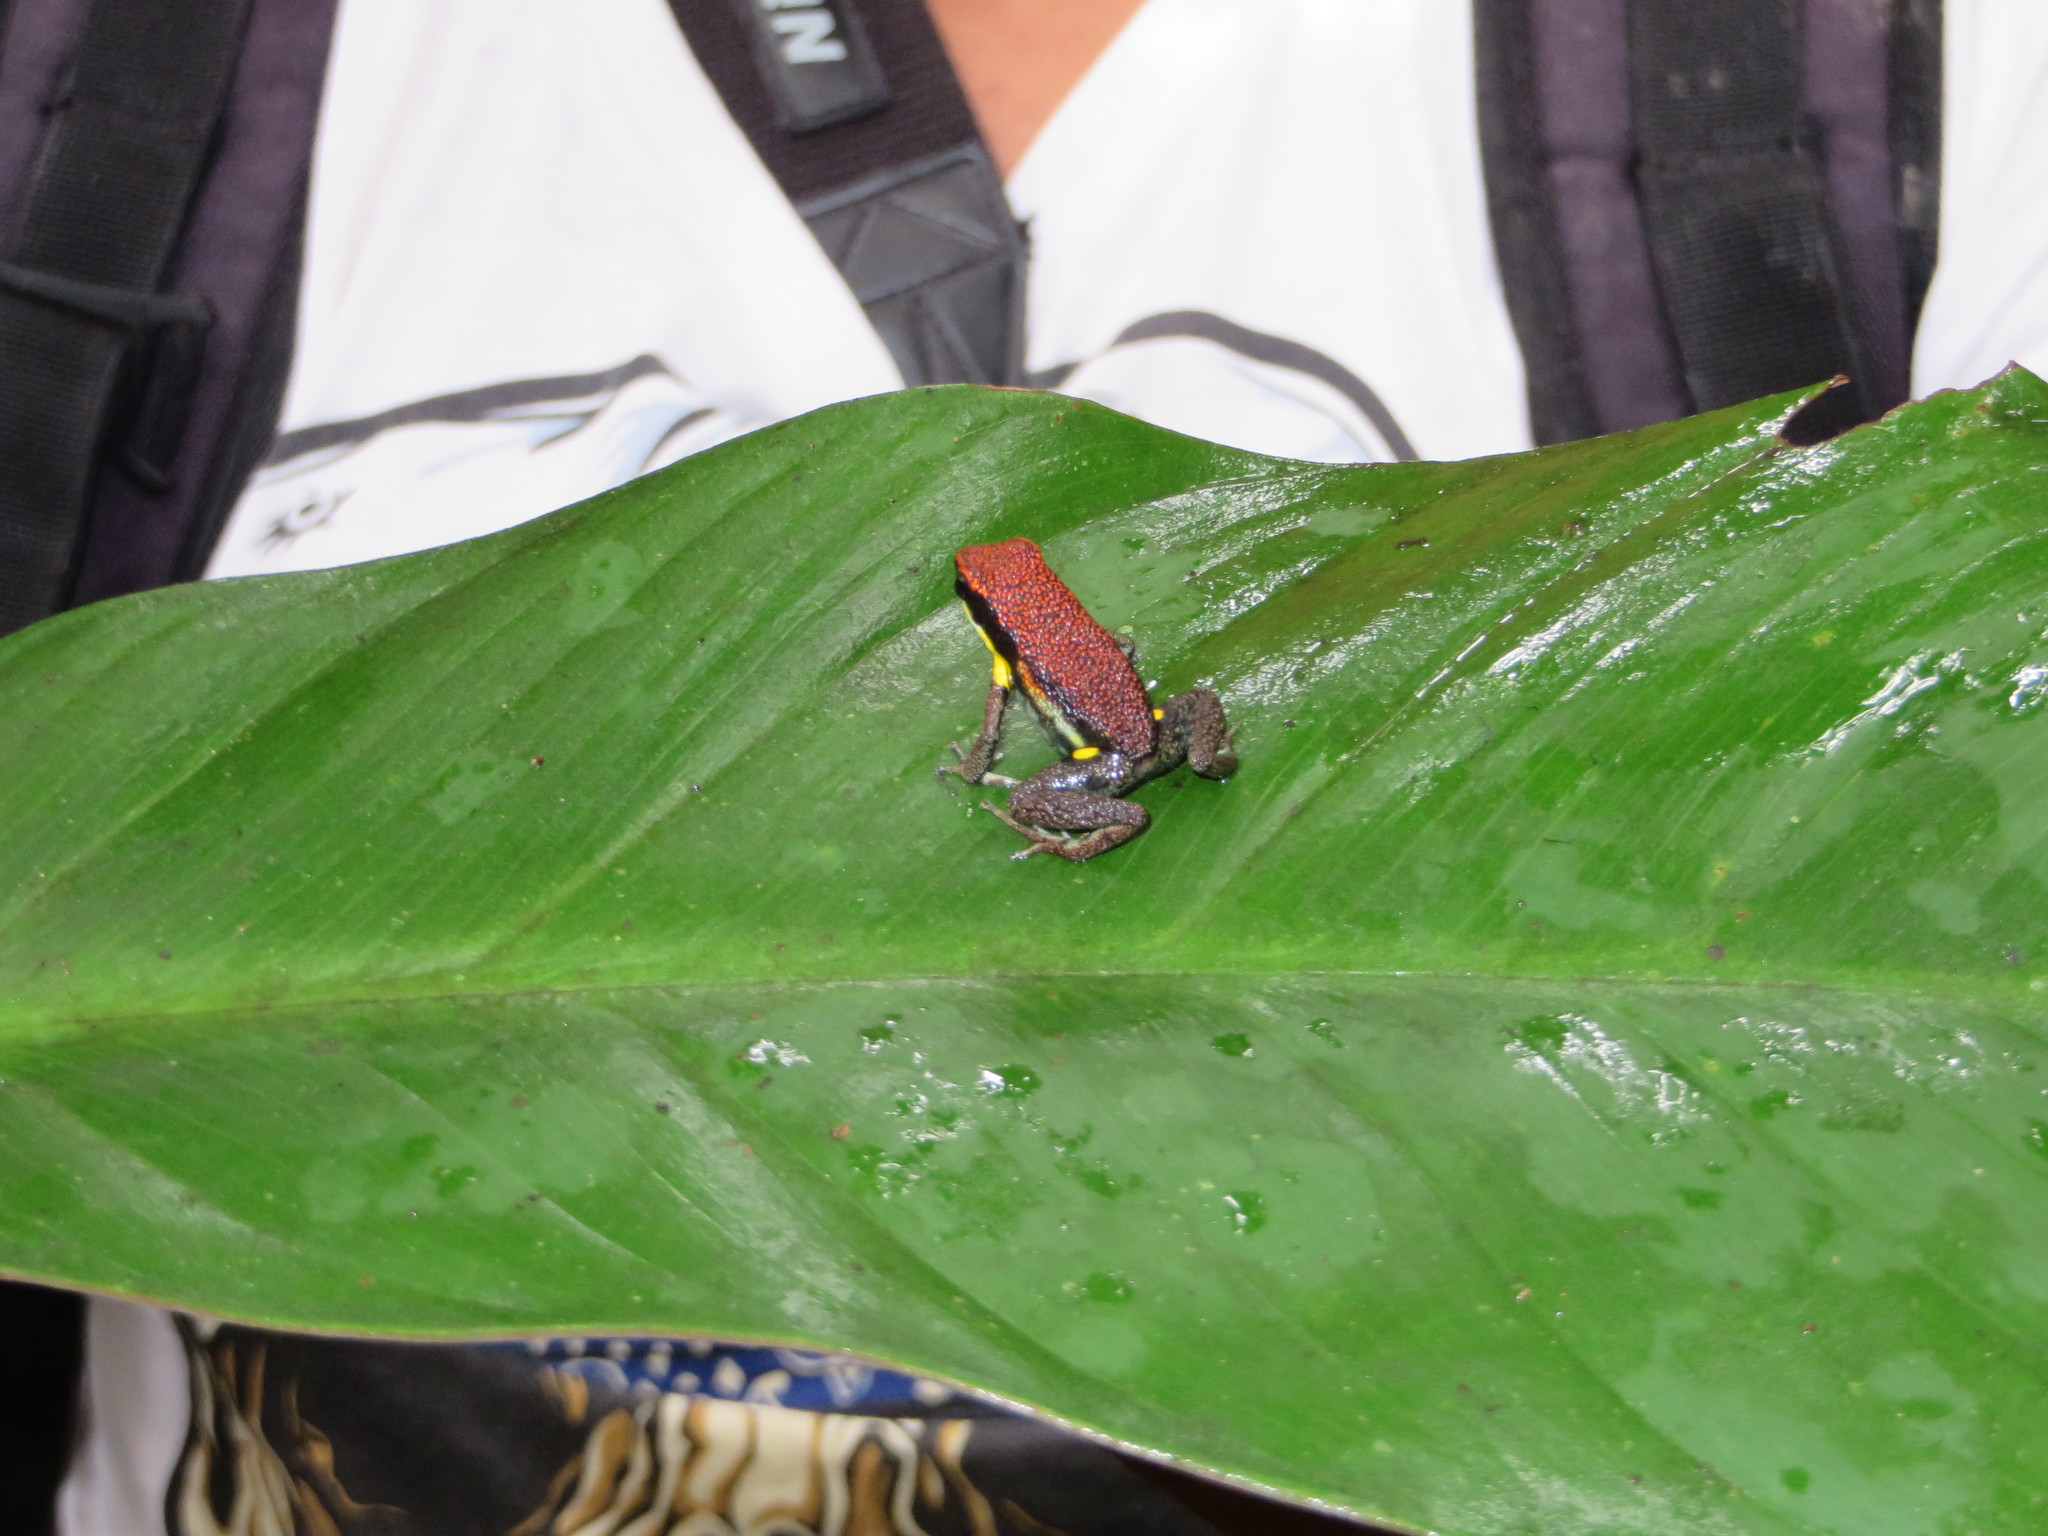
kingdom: Animalia
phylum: Chordata
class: Amphibia
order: Anura
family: Dendrobatidae
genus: Ameerega
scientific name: Ameerega bilinguis
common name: Ecuadorean poison frog
